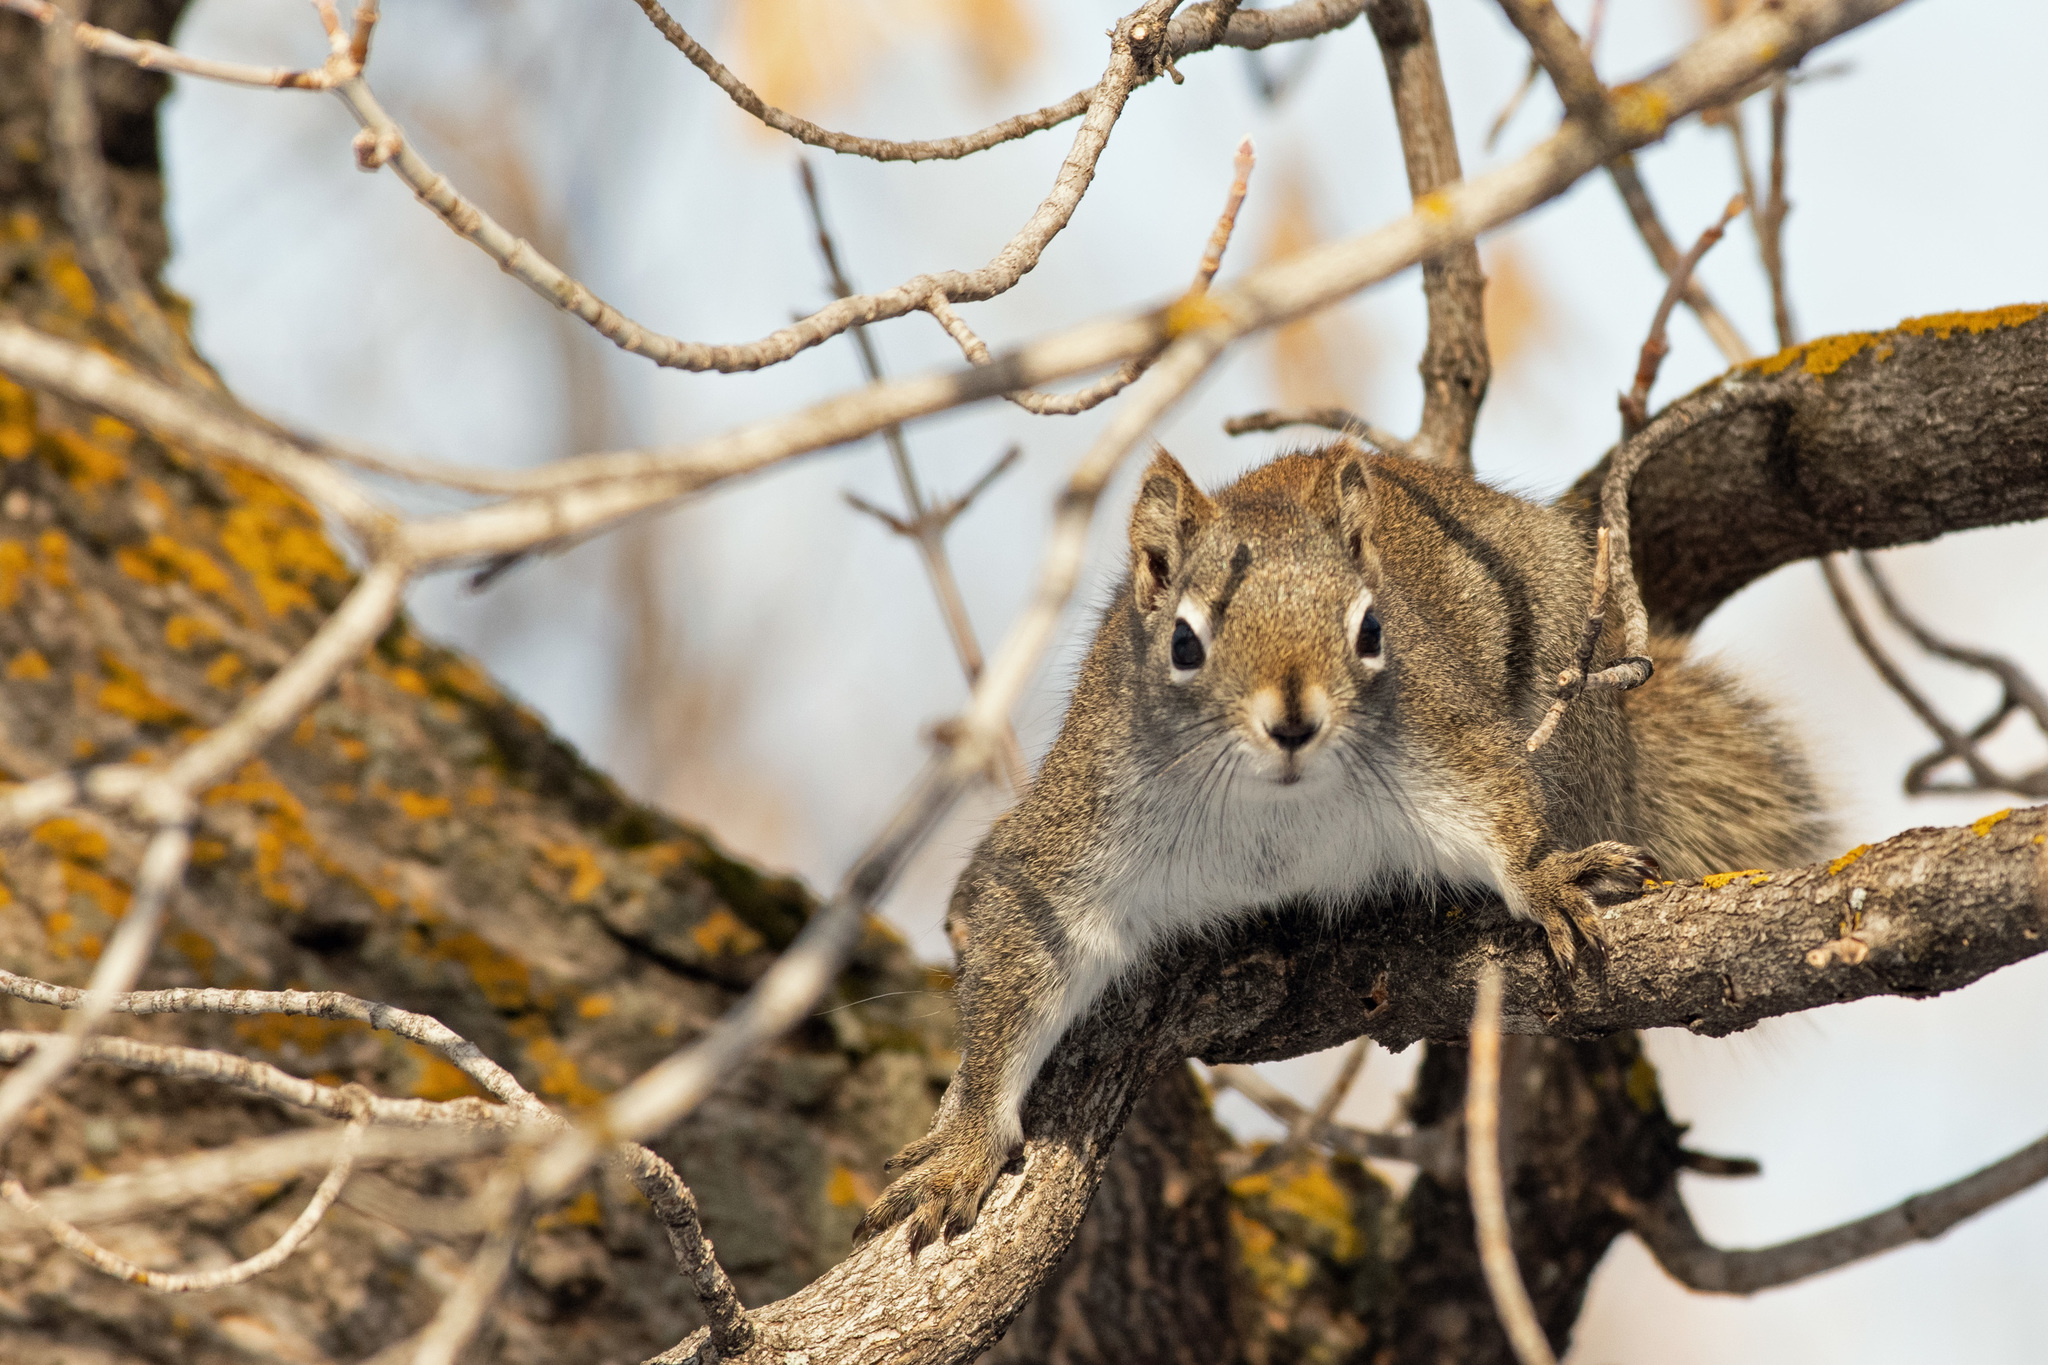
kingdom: Animalia
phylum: Chordata
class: Mammalia
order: Rodentia
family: Sciuridae
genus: Tamiasciurus
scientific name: Tamiasciurus hudsonicus
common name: Red squirrel
